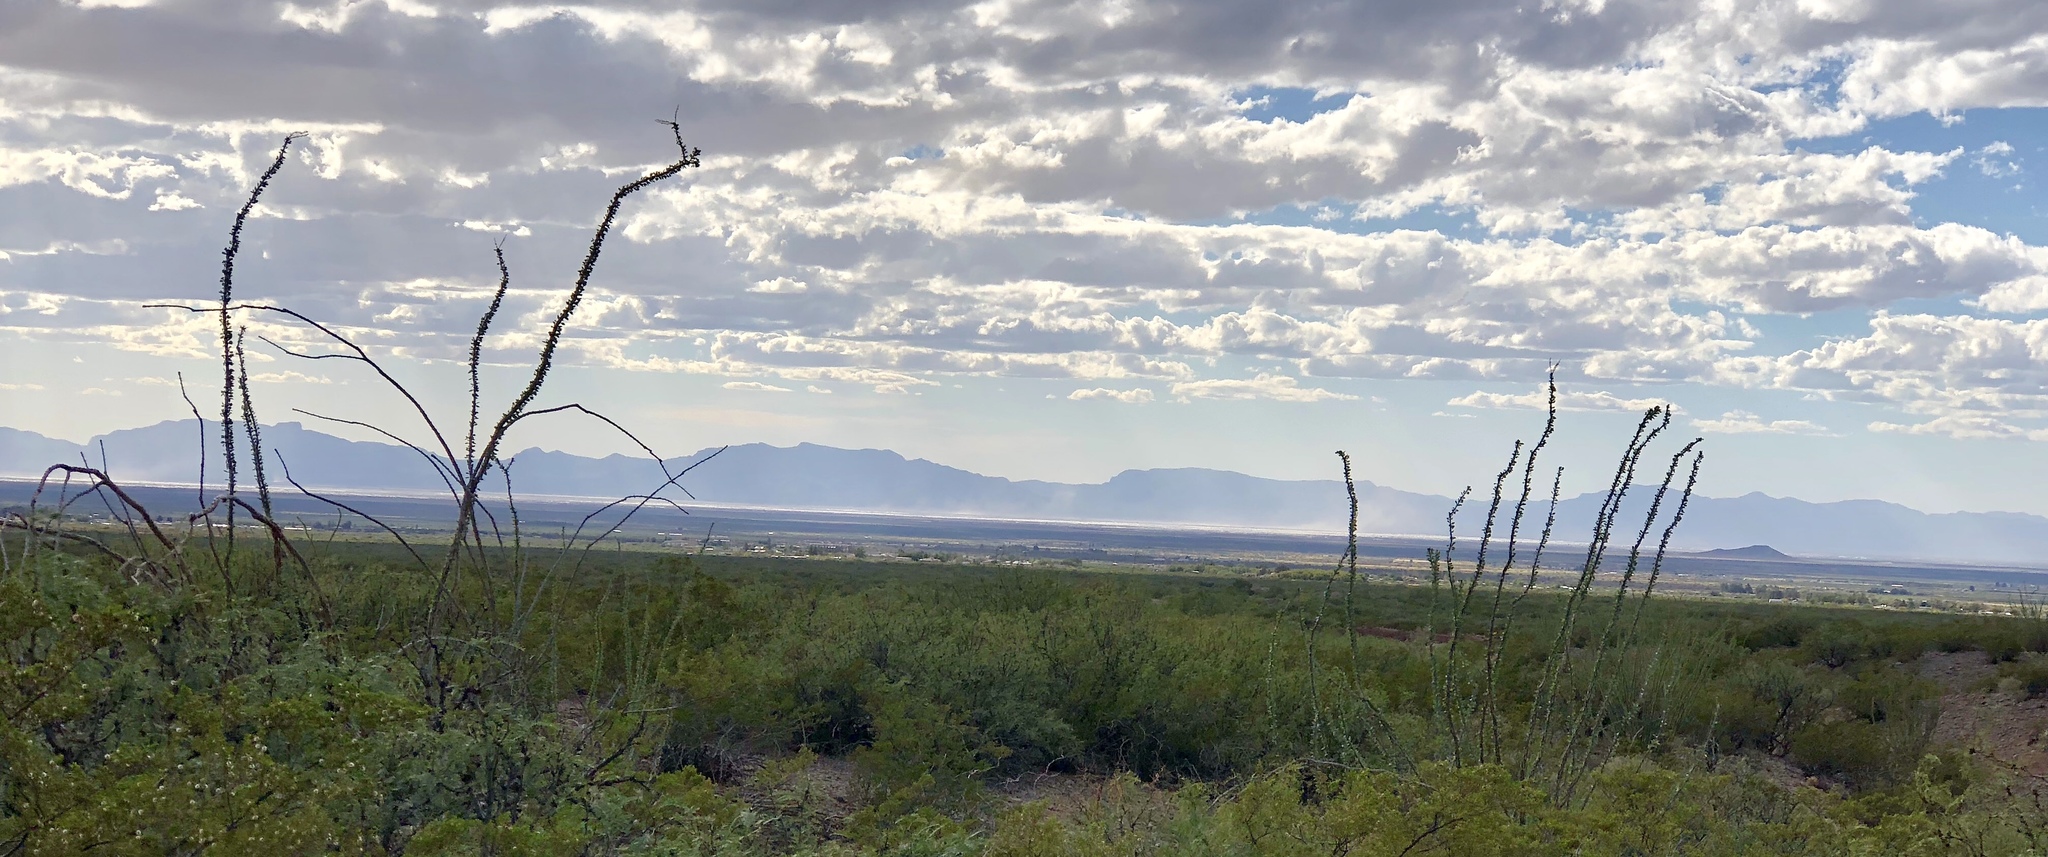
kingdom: Plantae
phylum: Tracheophyta
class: Magnoliopsida
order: Ericales
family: Fouquieriaceae
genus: Fouquieria
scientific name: Fouquieria splendens
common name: Vine-cactus
